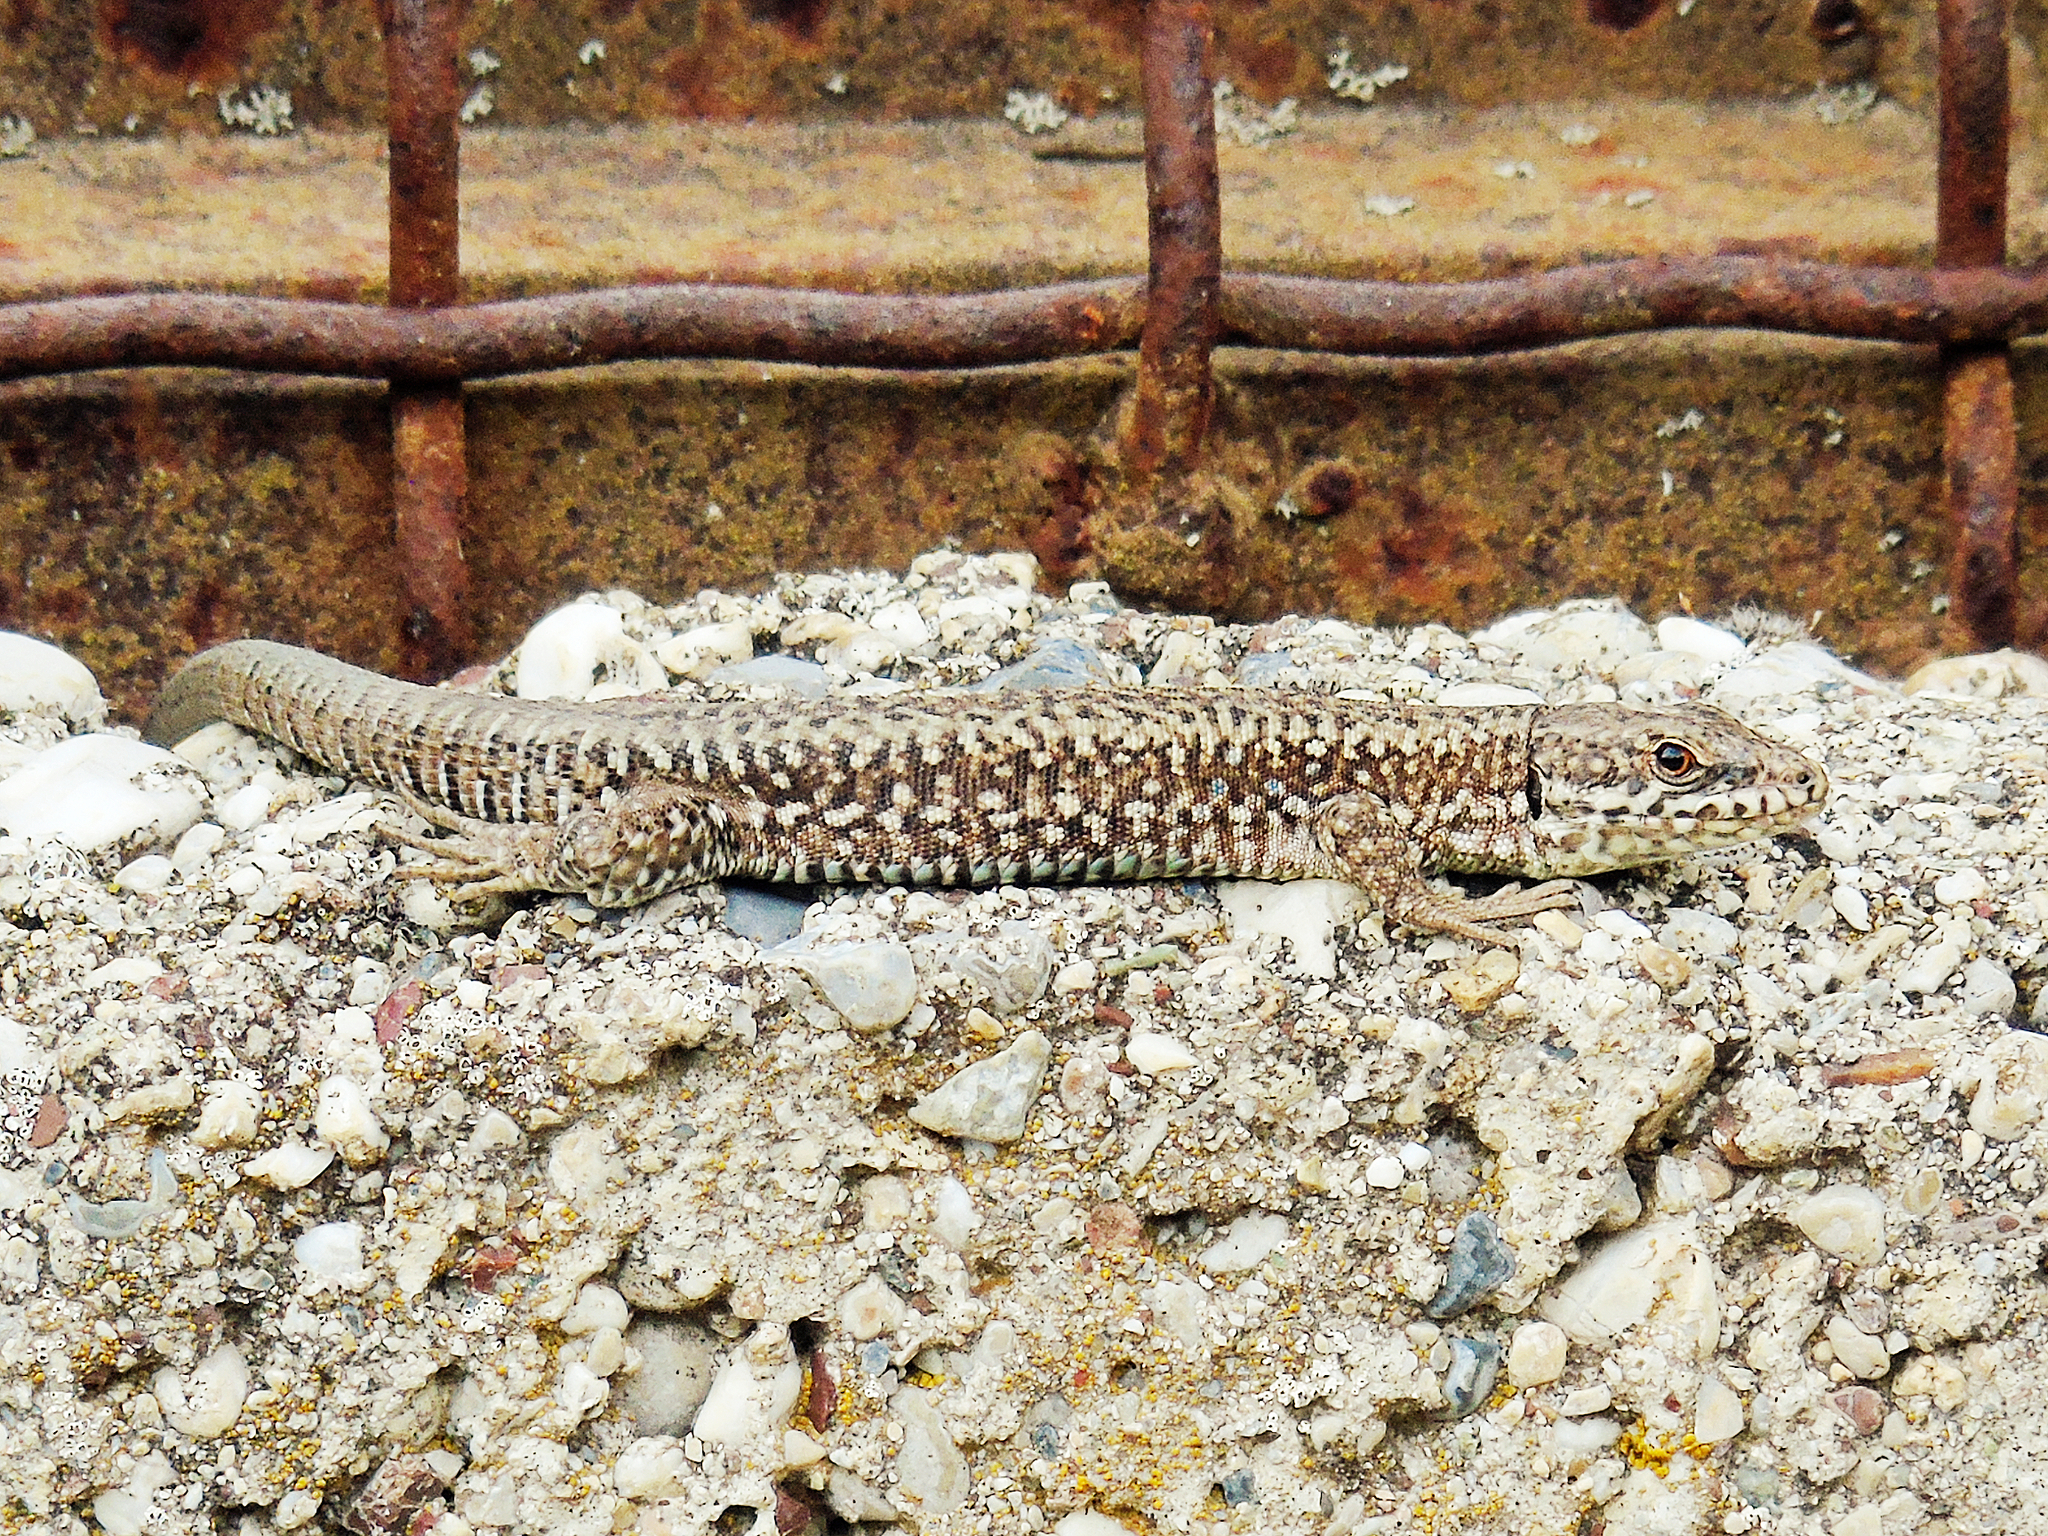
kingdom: Animalia
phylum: Chordata
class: Squamata
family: Lacertidae
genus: Podarcis
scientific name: Podarcis muralis
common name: Common wall lizard
